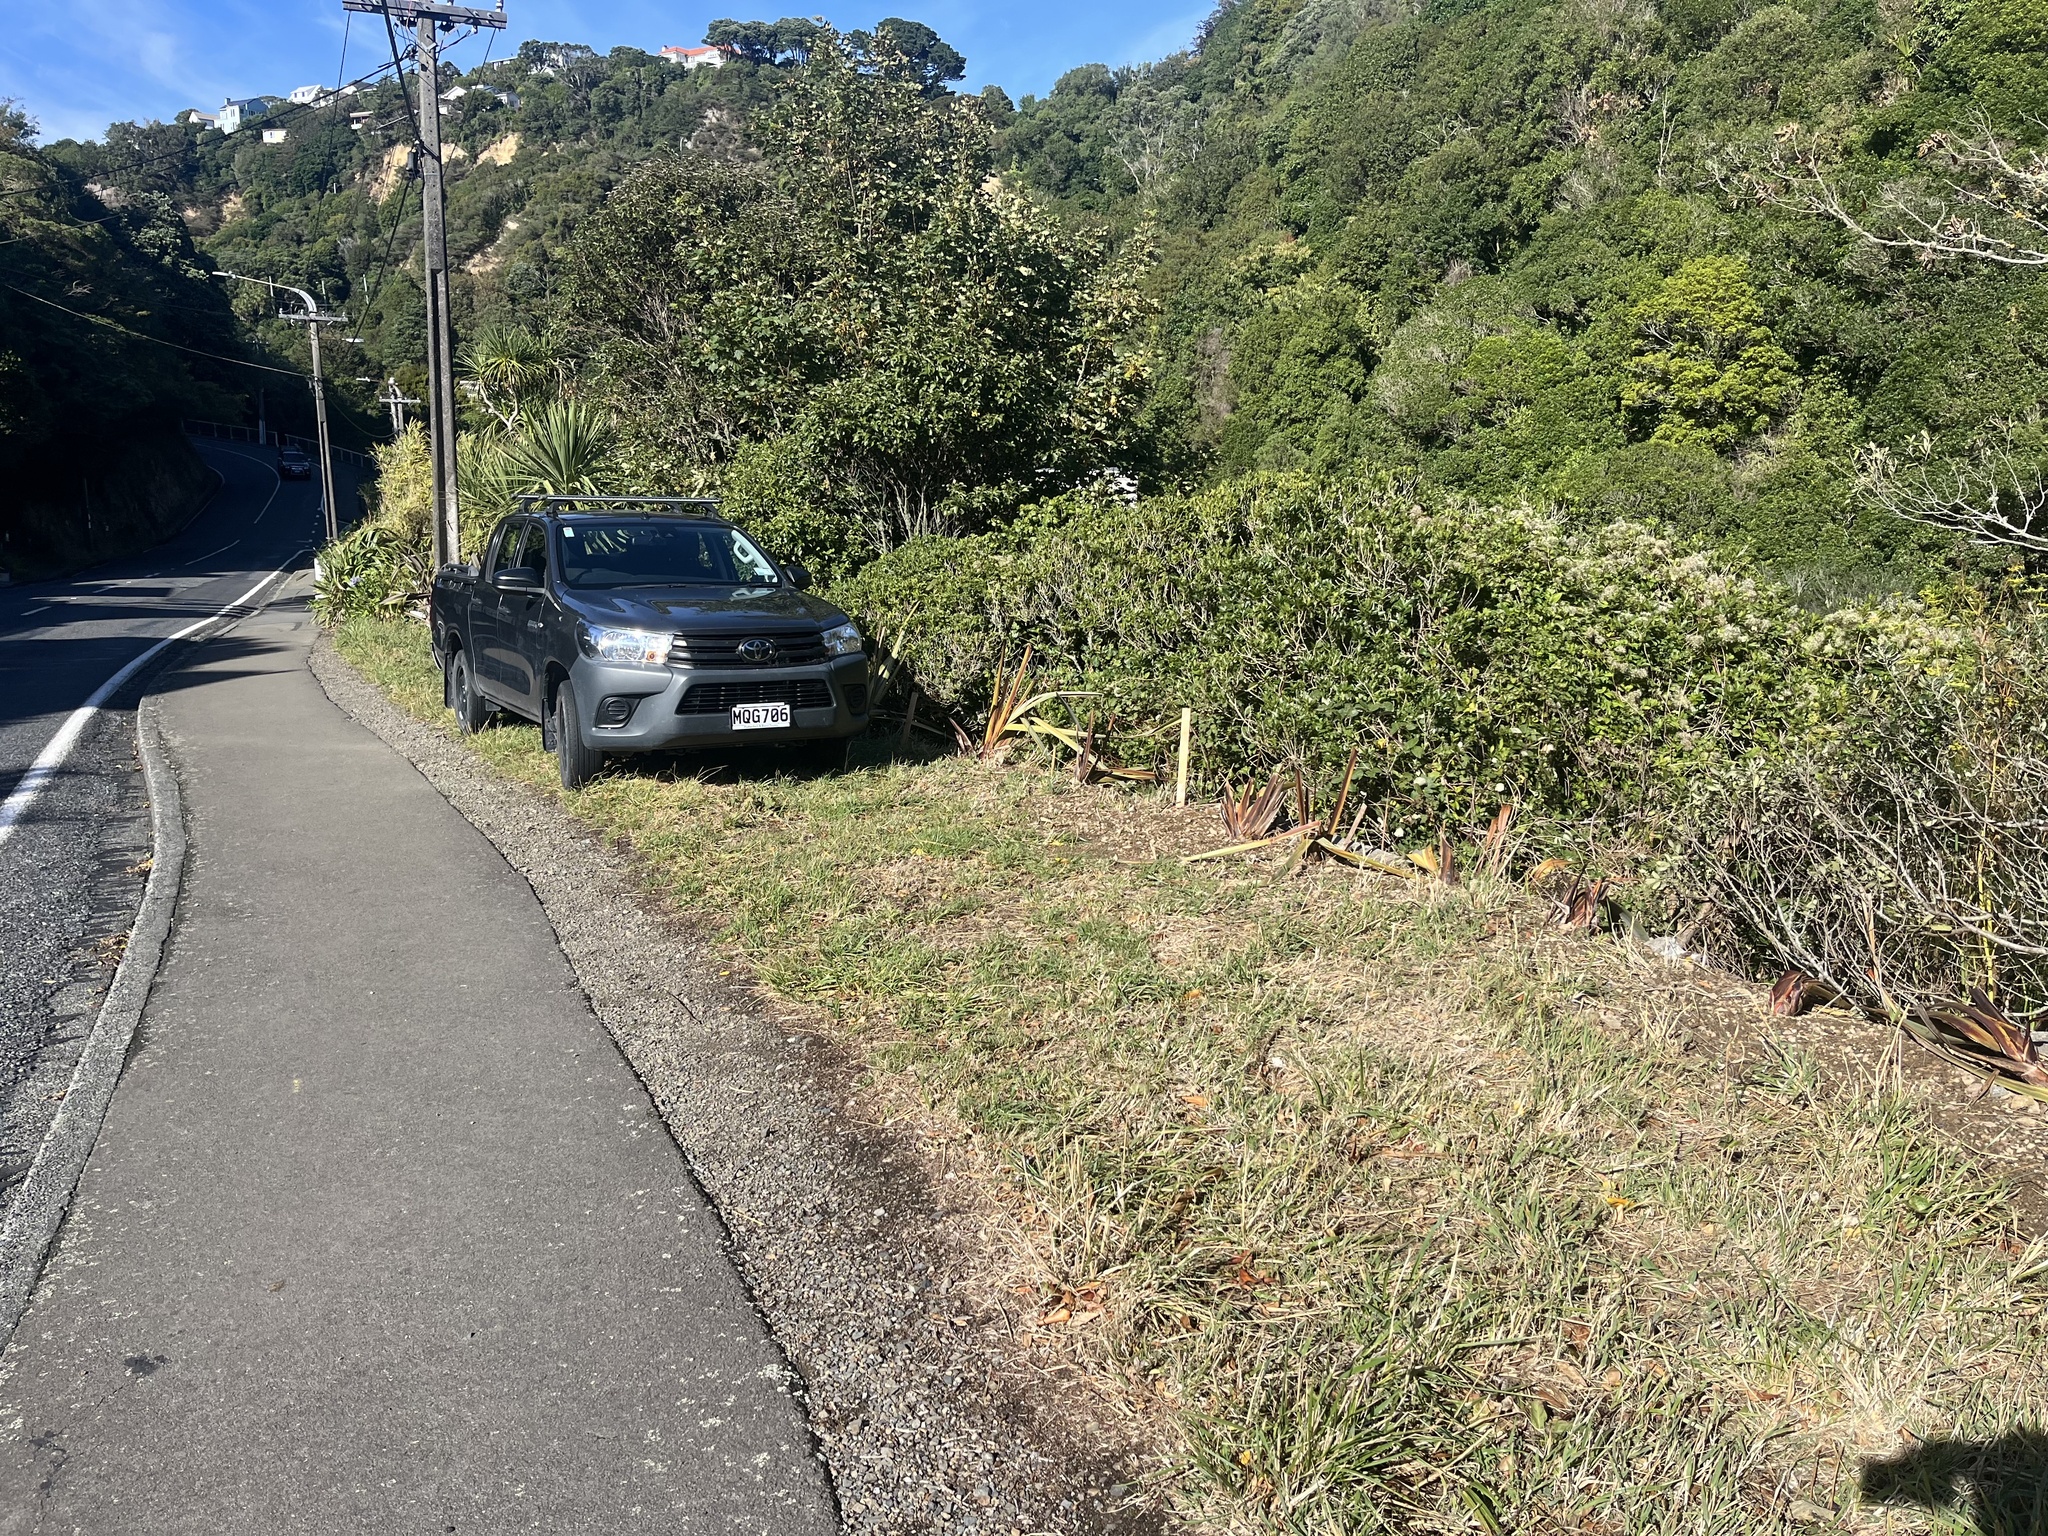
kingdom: Plantae
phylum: Tracheophyta
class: Magnoliopsida
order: Ranunculales
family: Ranunculaceae
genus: Clematis
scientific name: Clematis vitalba
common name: Evergreen clematis
